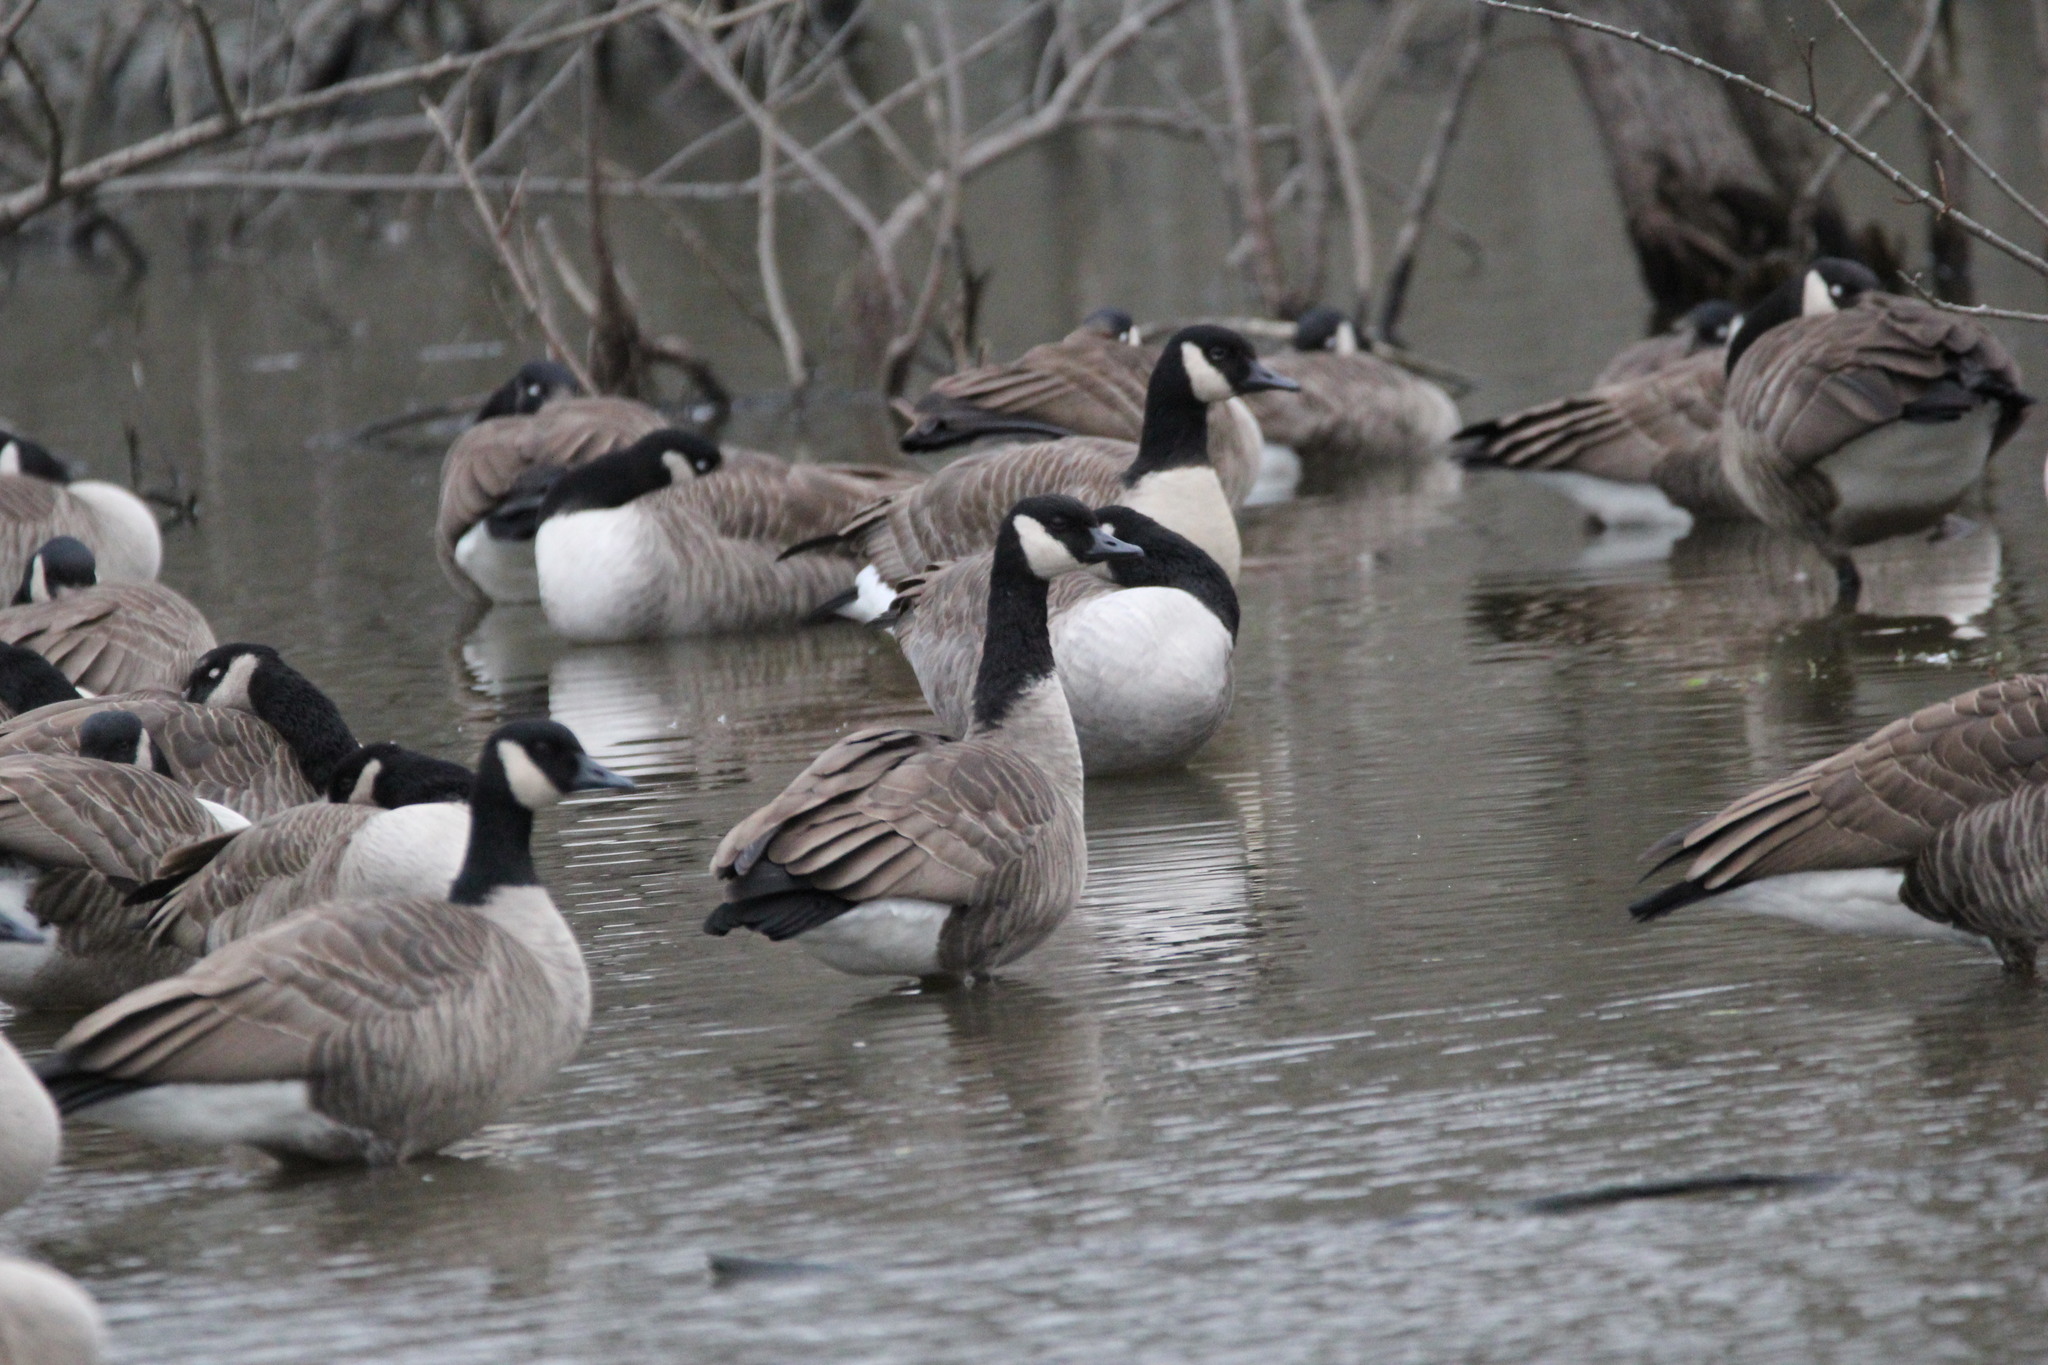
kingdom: Animalia
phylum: Chordata
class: Aves
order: Anseriformes
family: Anatidae
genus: Branta
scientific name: Branta canadensis
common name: Canada goose
